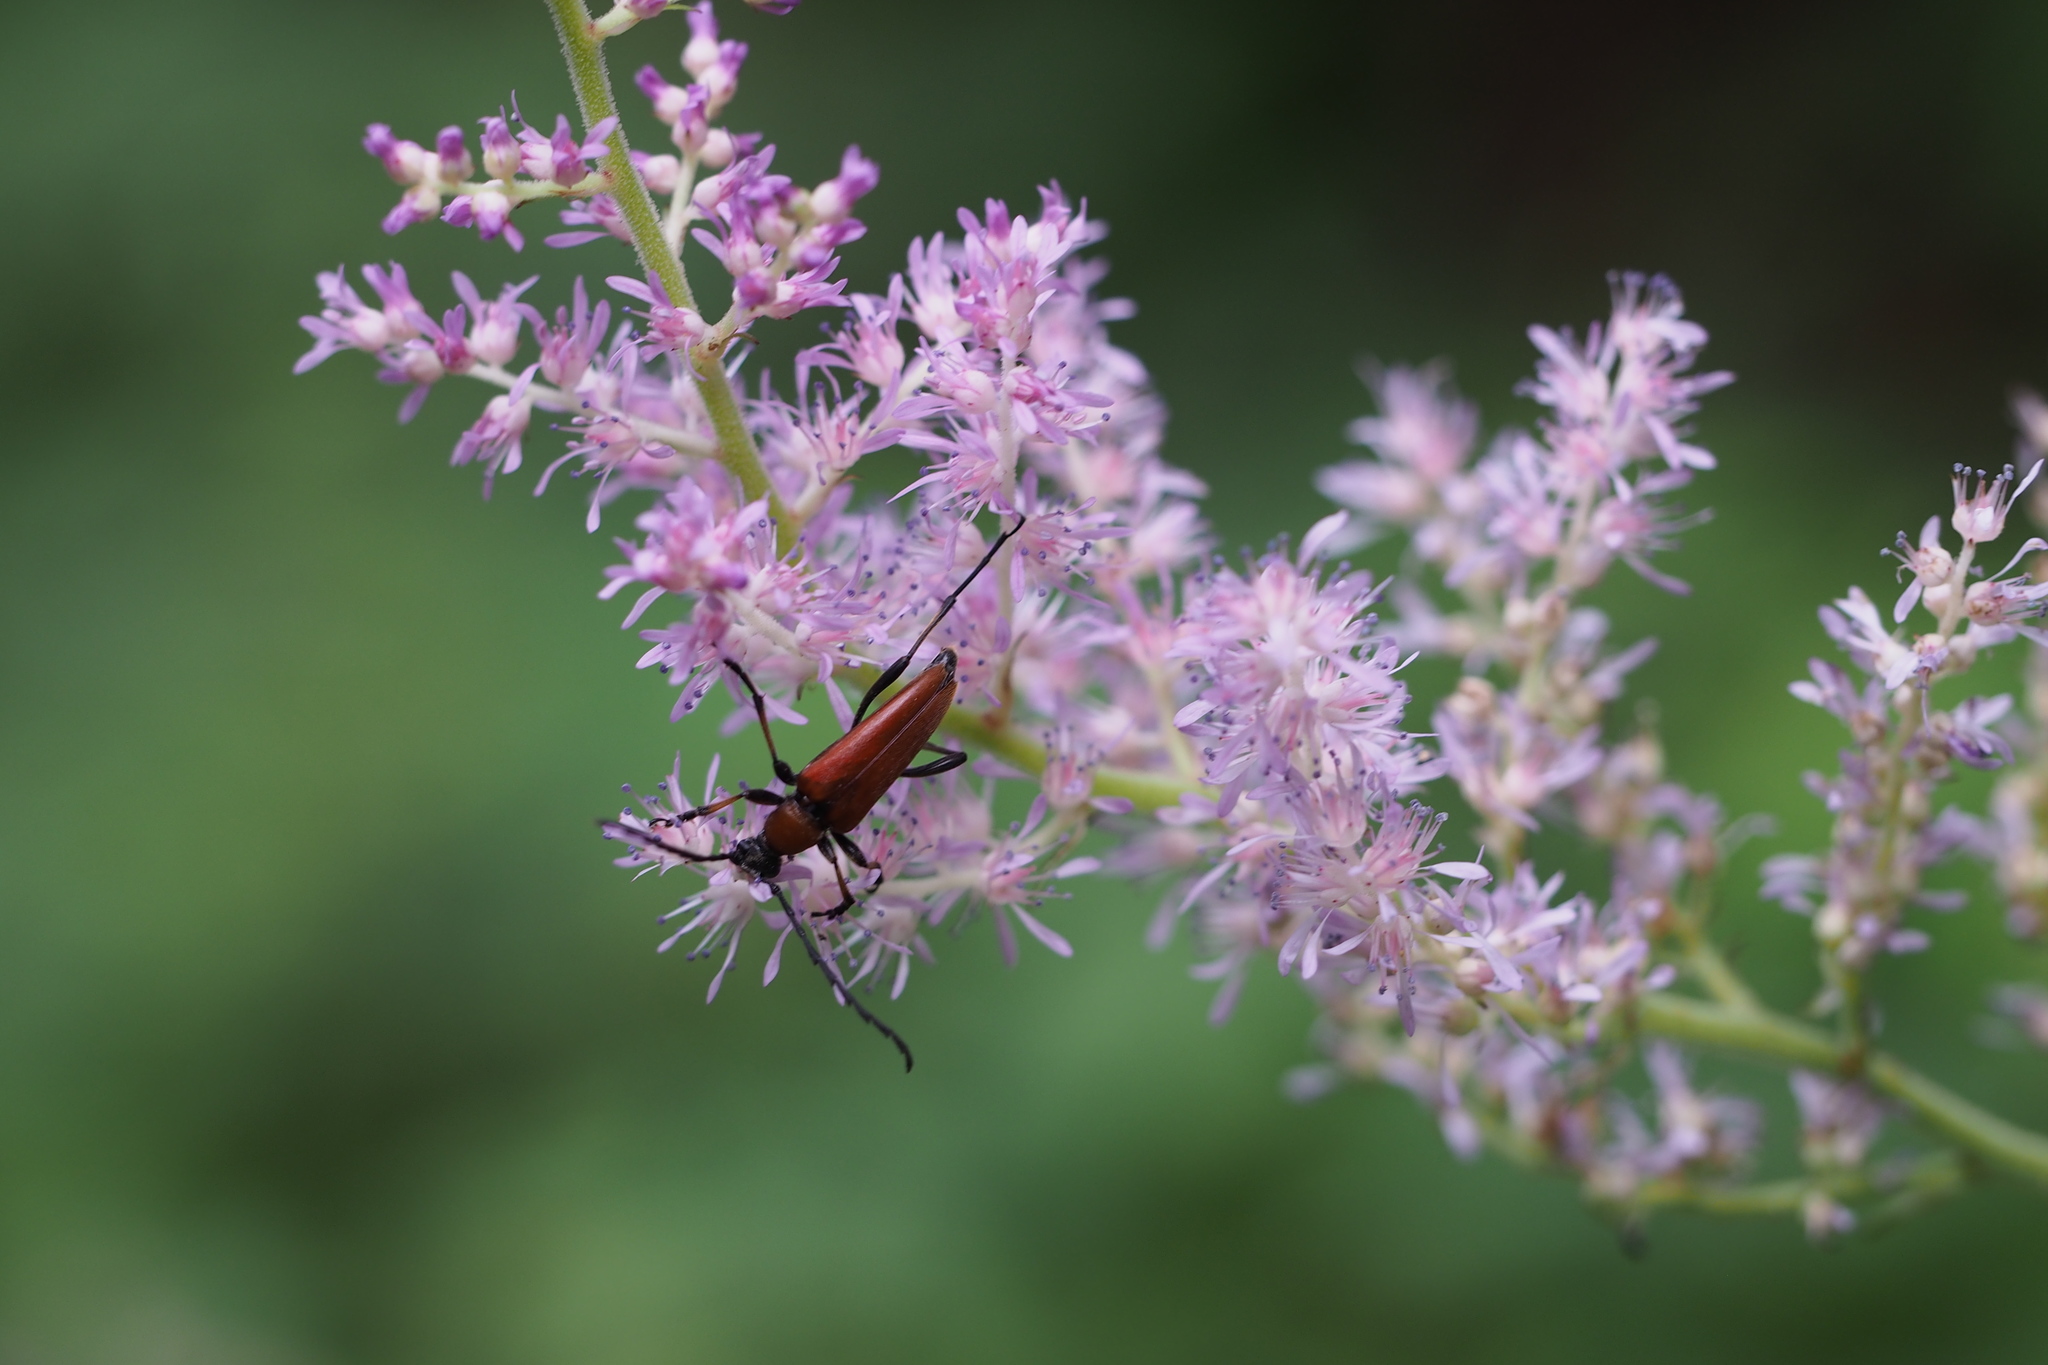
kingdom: Animalia
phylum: Arthropoda
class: Insecta
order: Coleoptera
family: Cerambycidae
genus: Stictoleptura
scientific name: Stictoleptura dichroa
